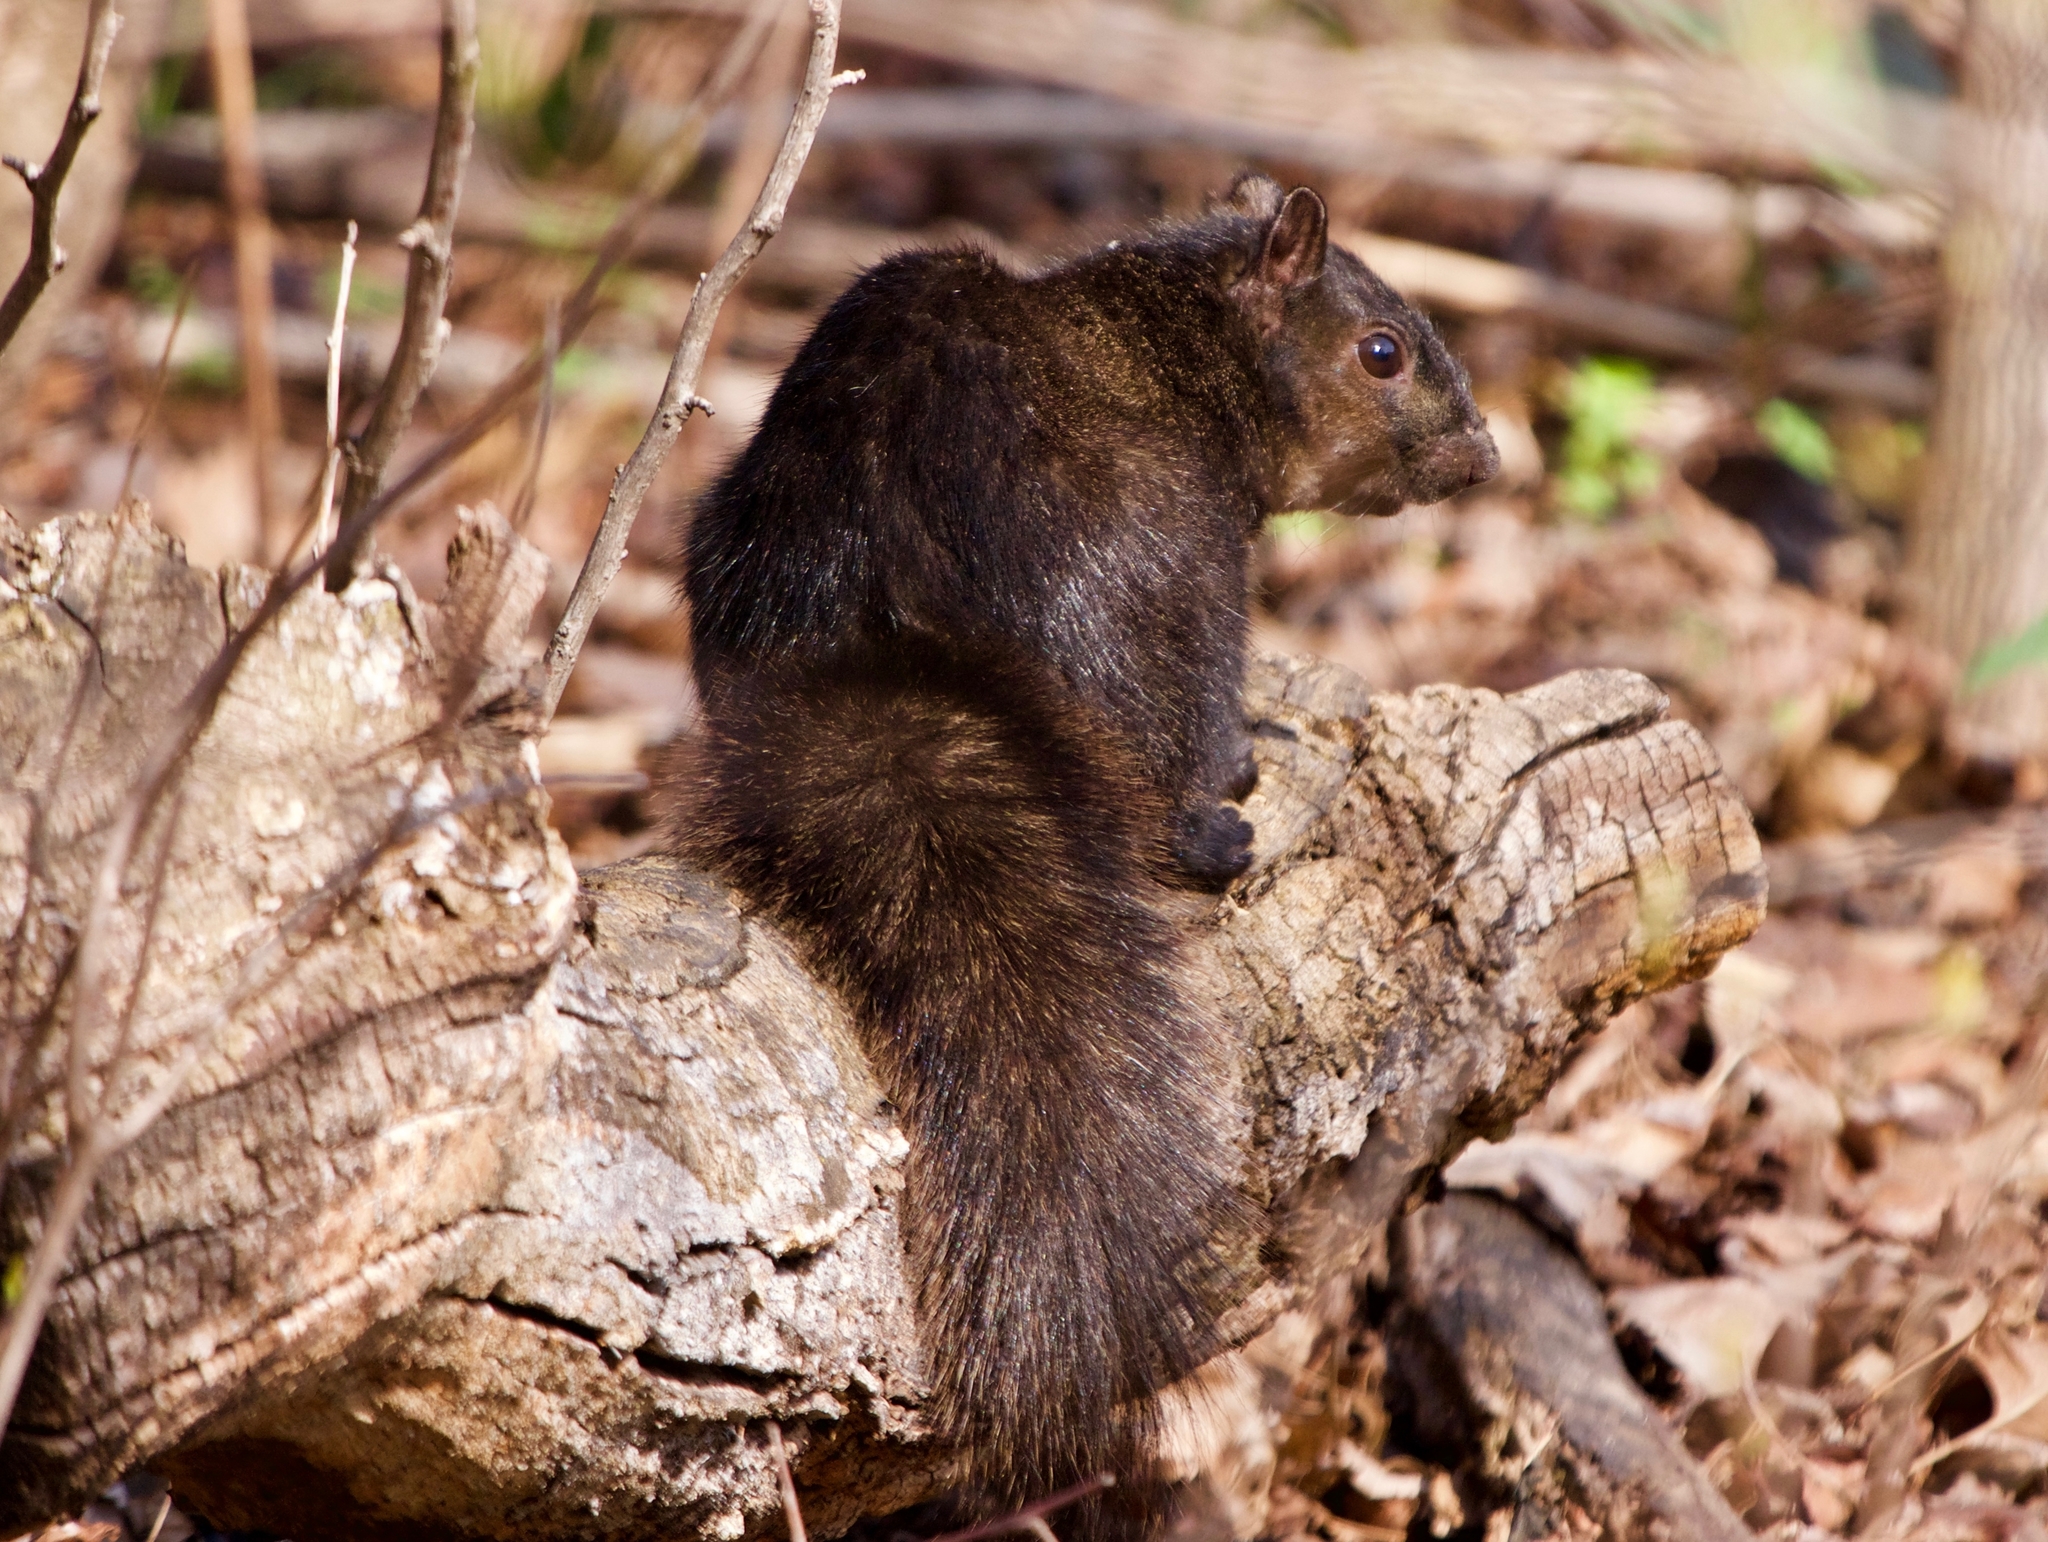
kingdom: Animalia
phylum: Chordata
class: Mammalia
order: Rodentia
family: Sciuridae
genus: Sciurus
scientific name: Sciurus carolinensis
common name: Eastern gray squirrel
